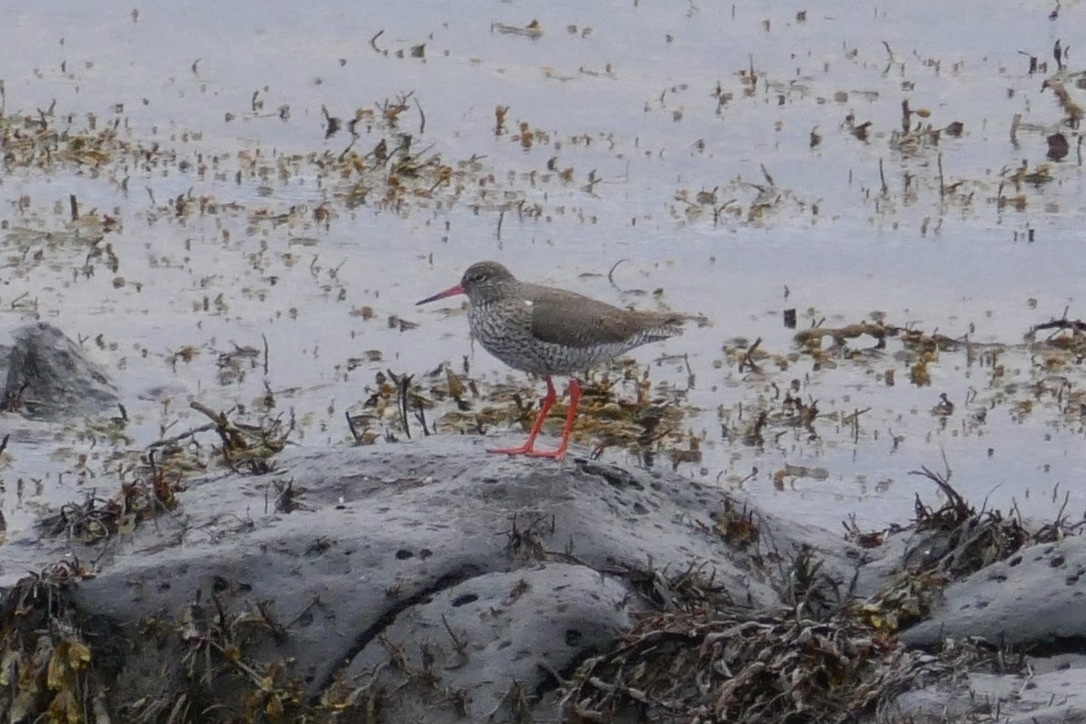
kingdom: Animalia
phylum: Chordata
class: Aves
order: Charadriiformes
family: Scolopacidae
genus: Tringa
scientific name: Tringa totanus
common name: Common redshank
